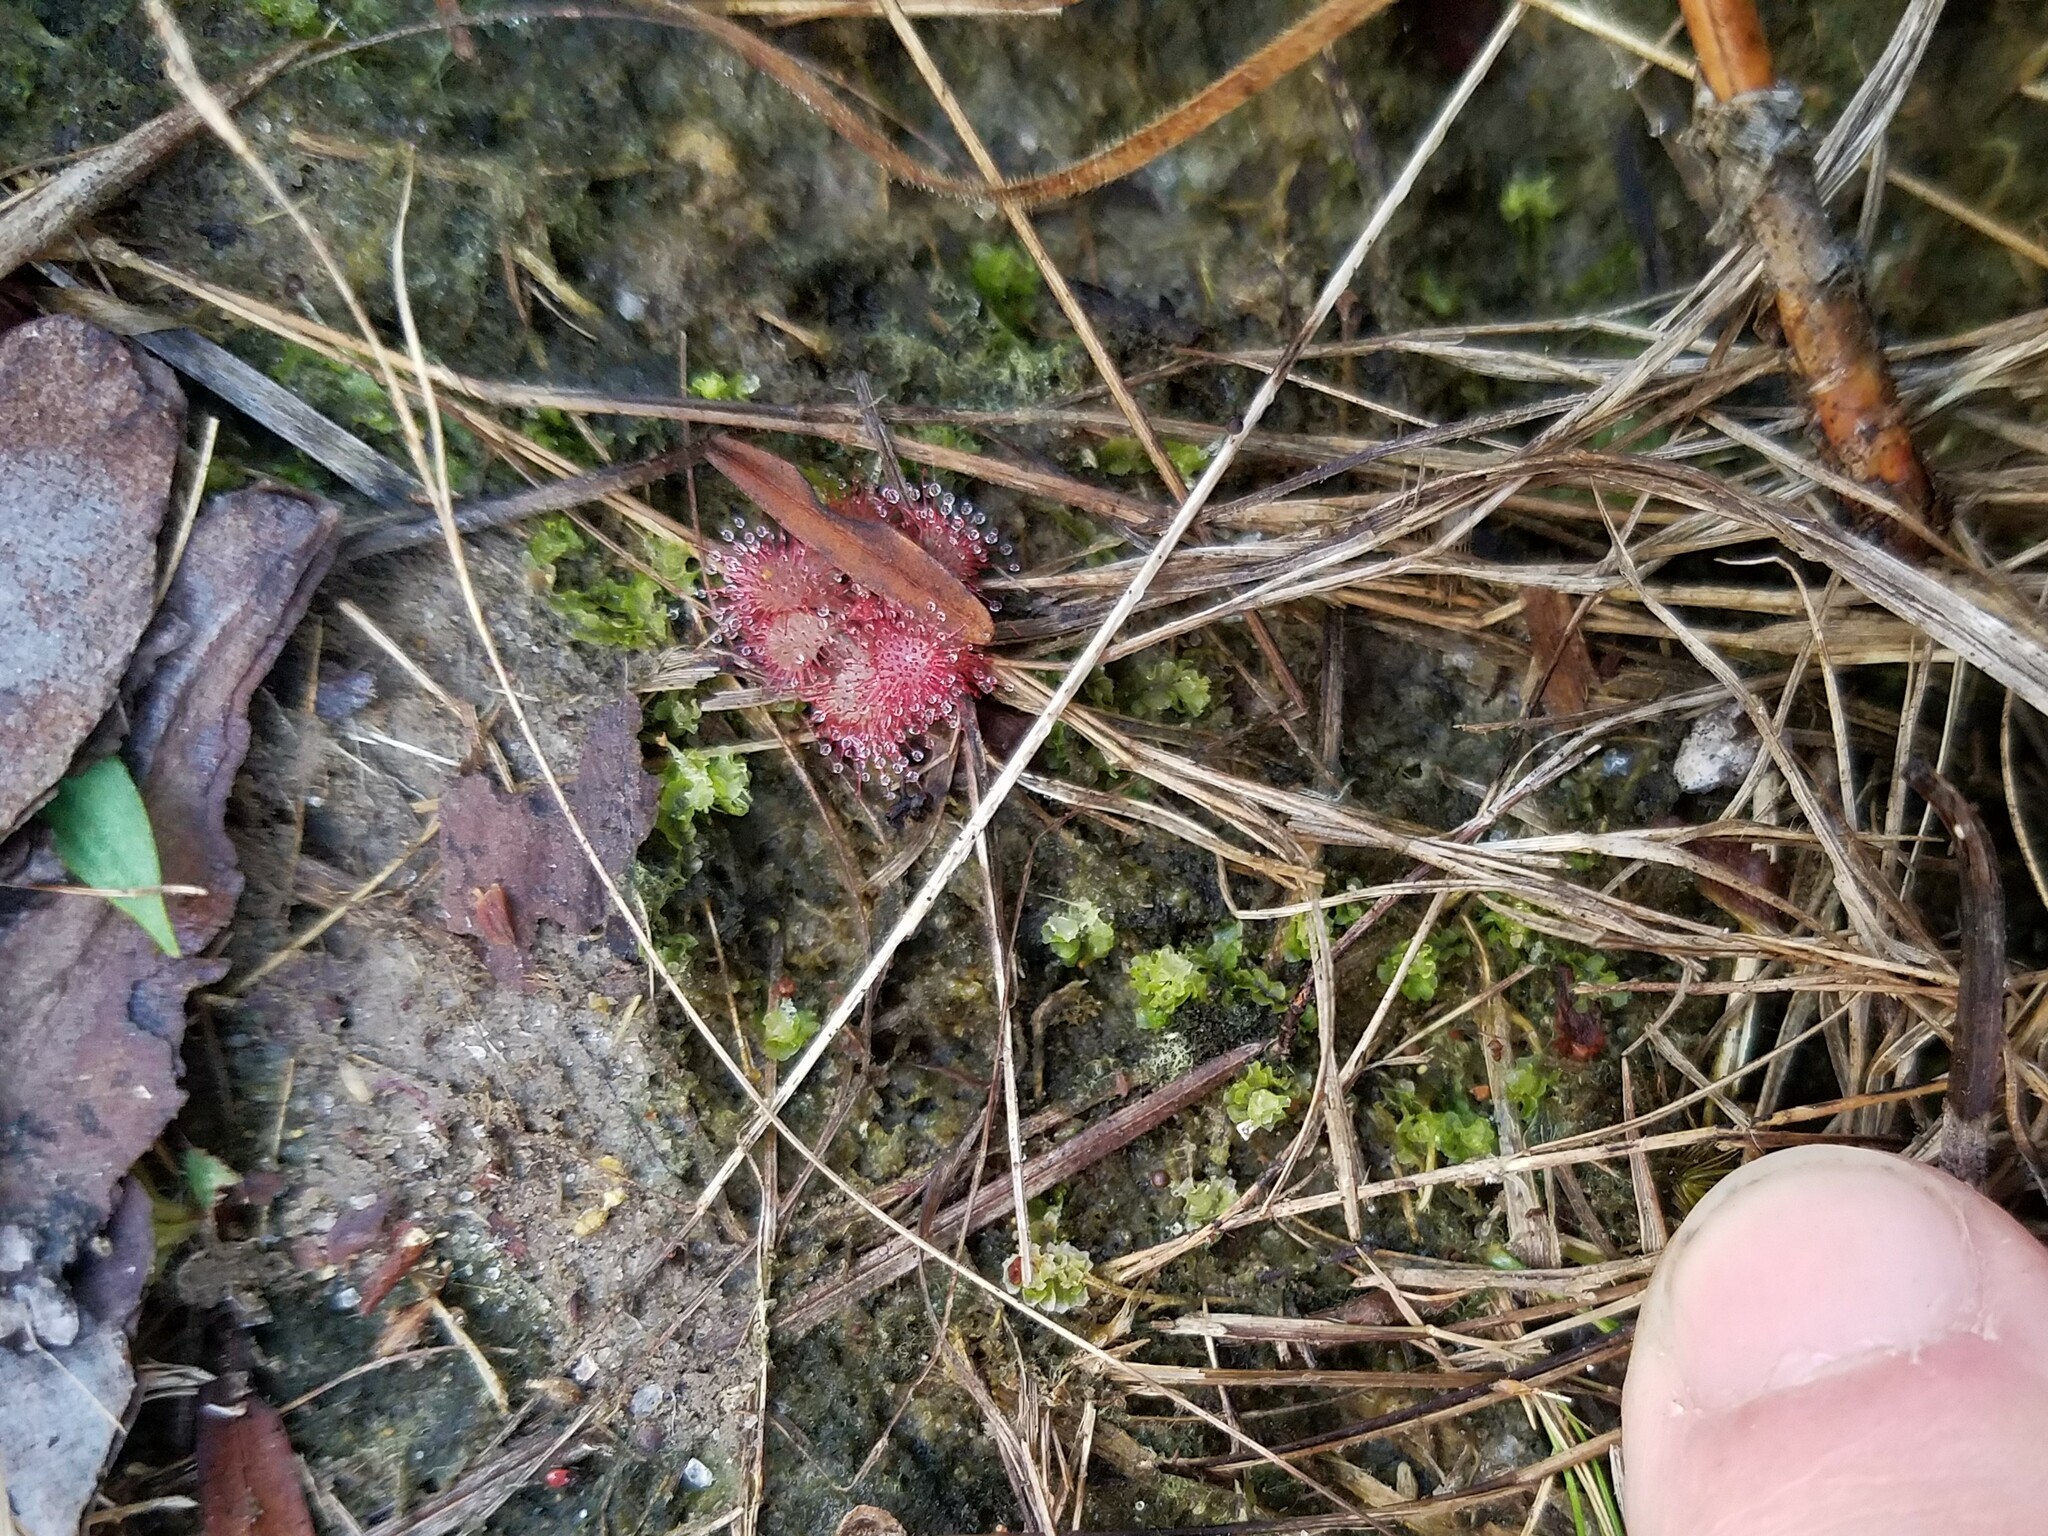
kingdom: Plantae
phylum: Tracheophyta
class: Magnoliopsida
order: Caryophyllales
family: Droseraceae
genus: Drosera
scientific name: Drosera brevifolia
